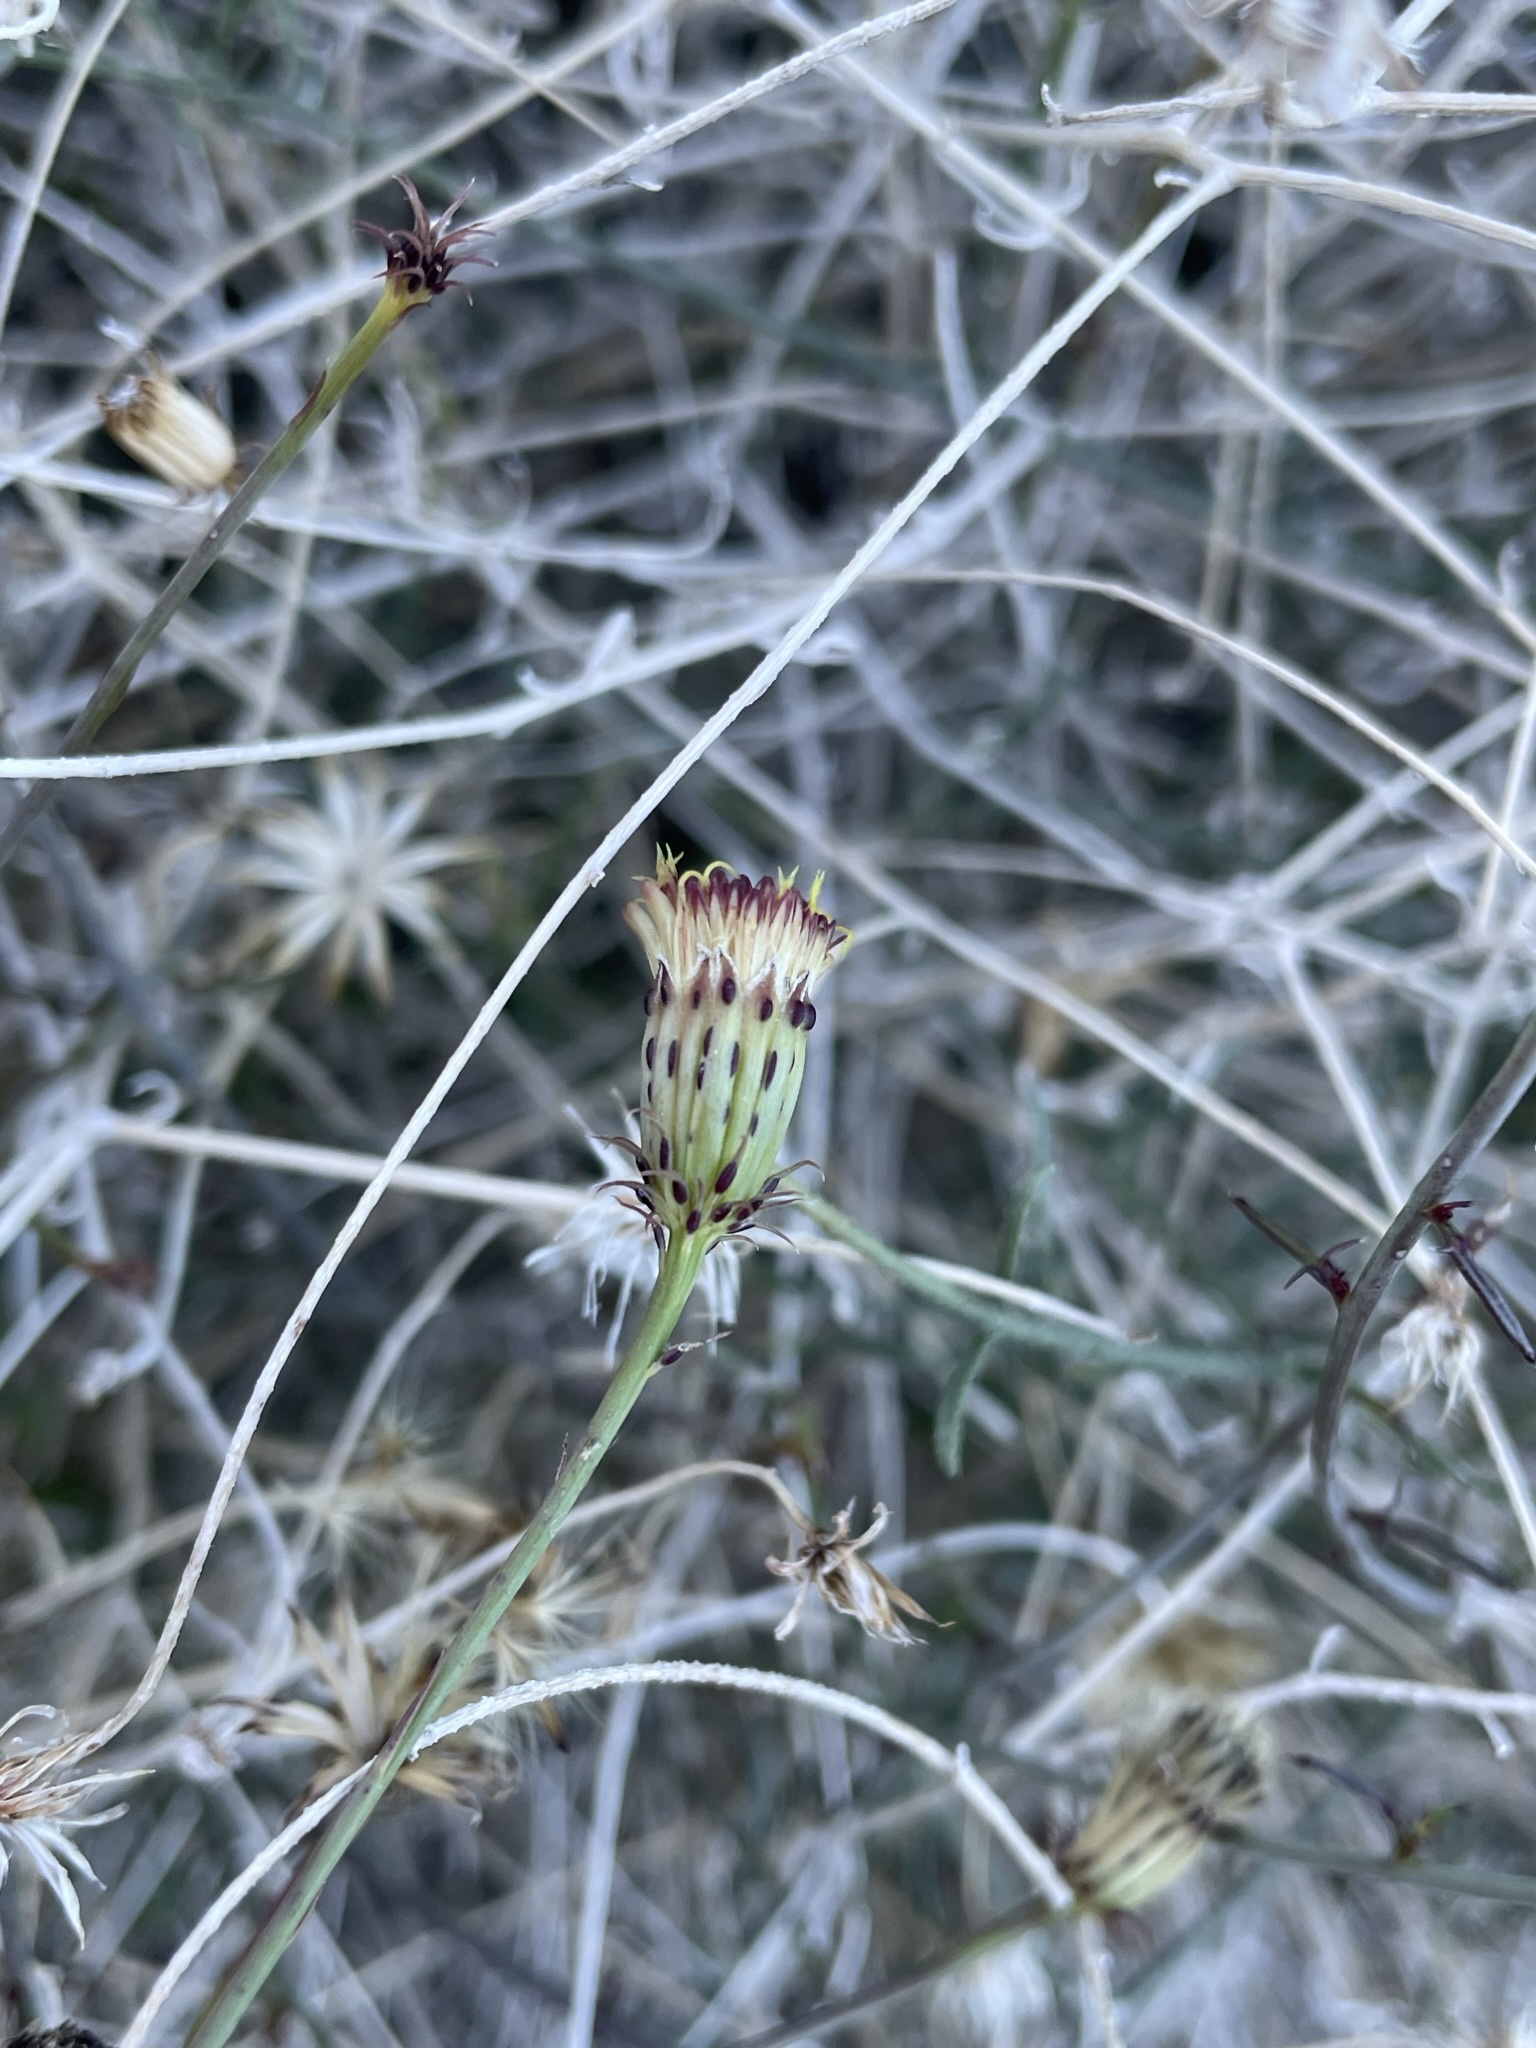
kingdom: Plantae
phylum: Tracheophyta
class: Magnoliopsida
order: Asterales
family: Asteraceae
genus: Adenophyllum
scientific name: Adenophyllum porophylloides
